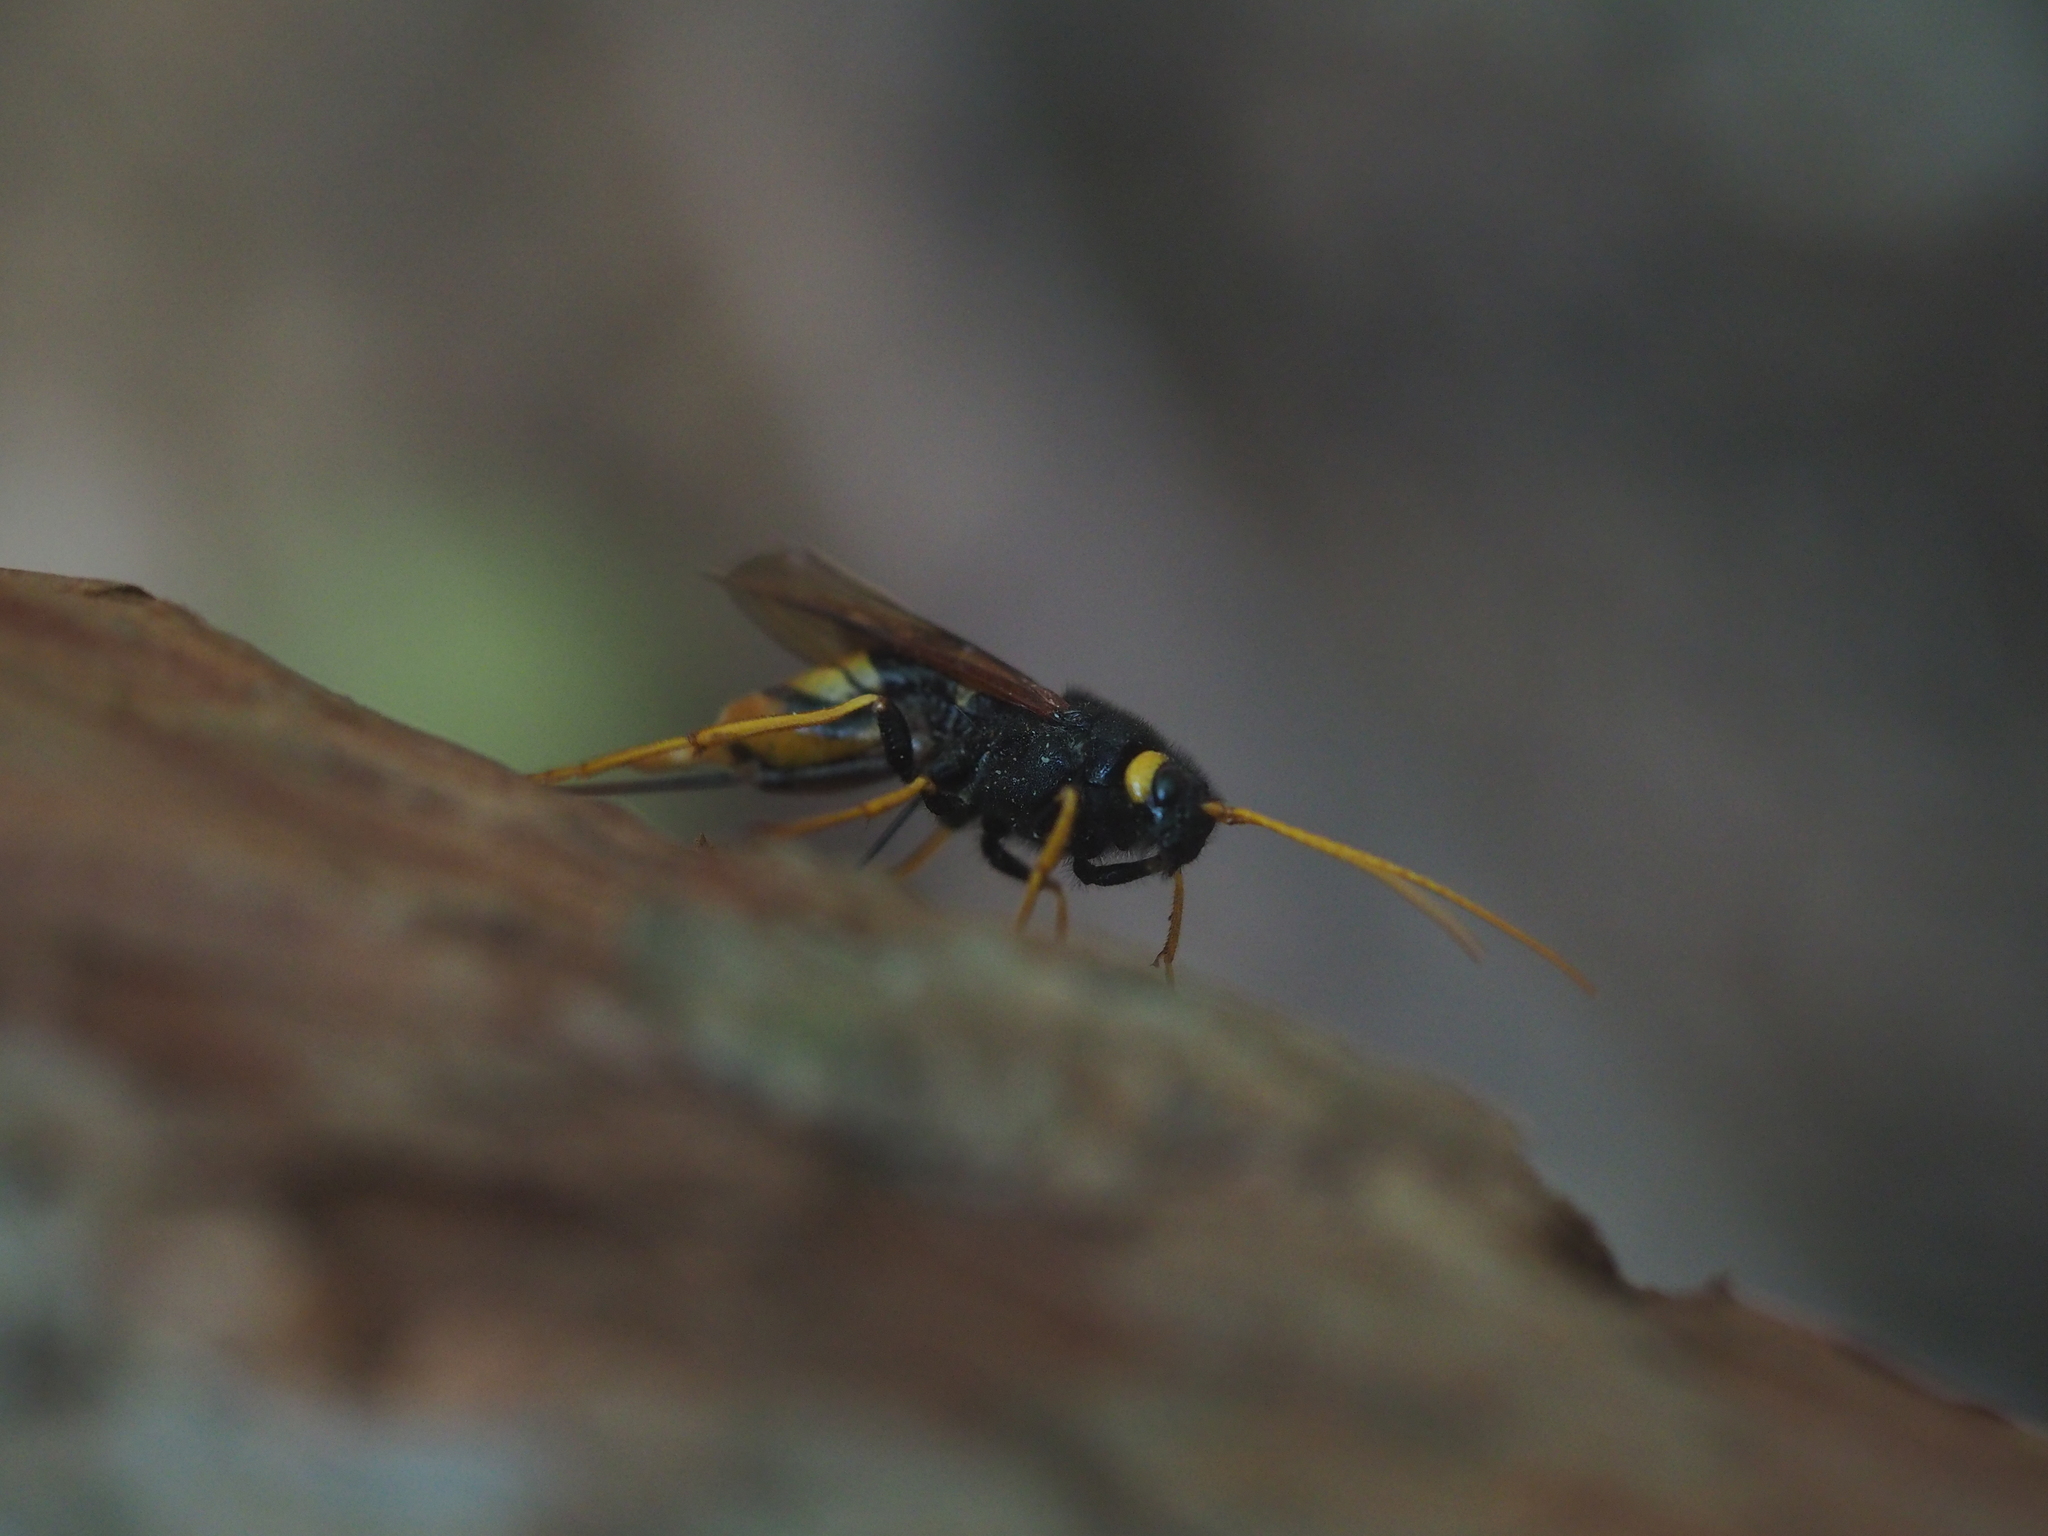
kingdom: Animalia
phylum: Arthropoda
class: Insecta
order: Hymenoptera
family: Siricidae
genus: Urocerus
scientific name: Urocerus gigas
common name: Giant woodwasp
